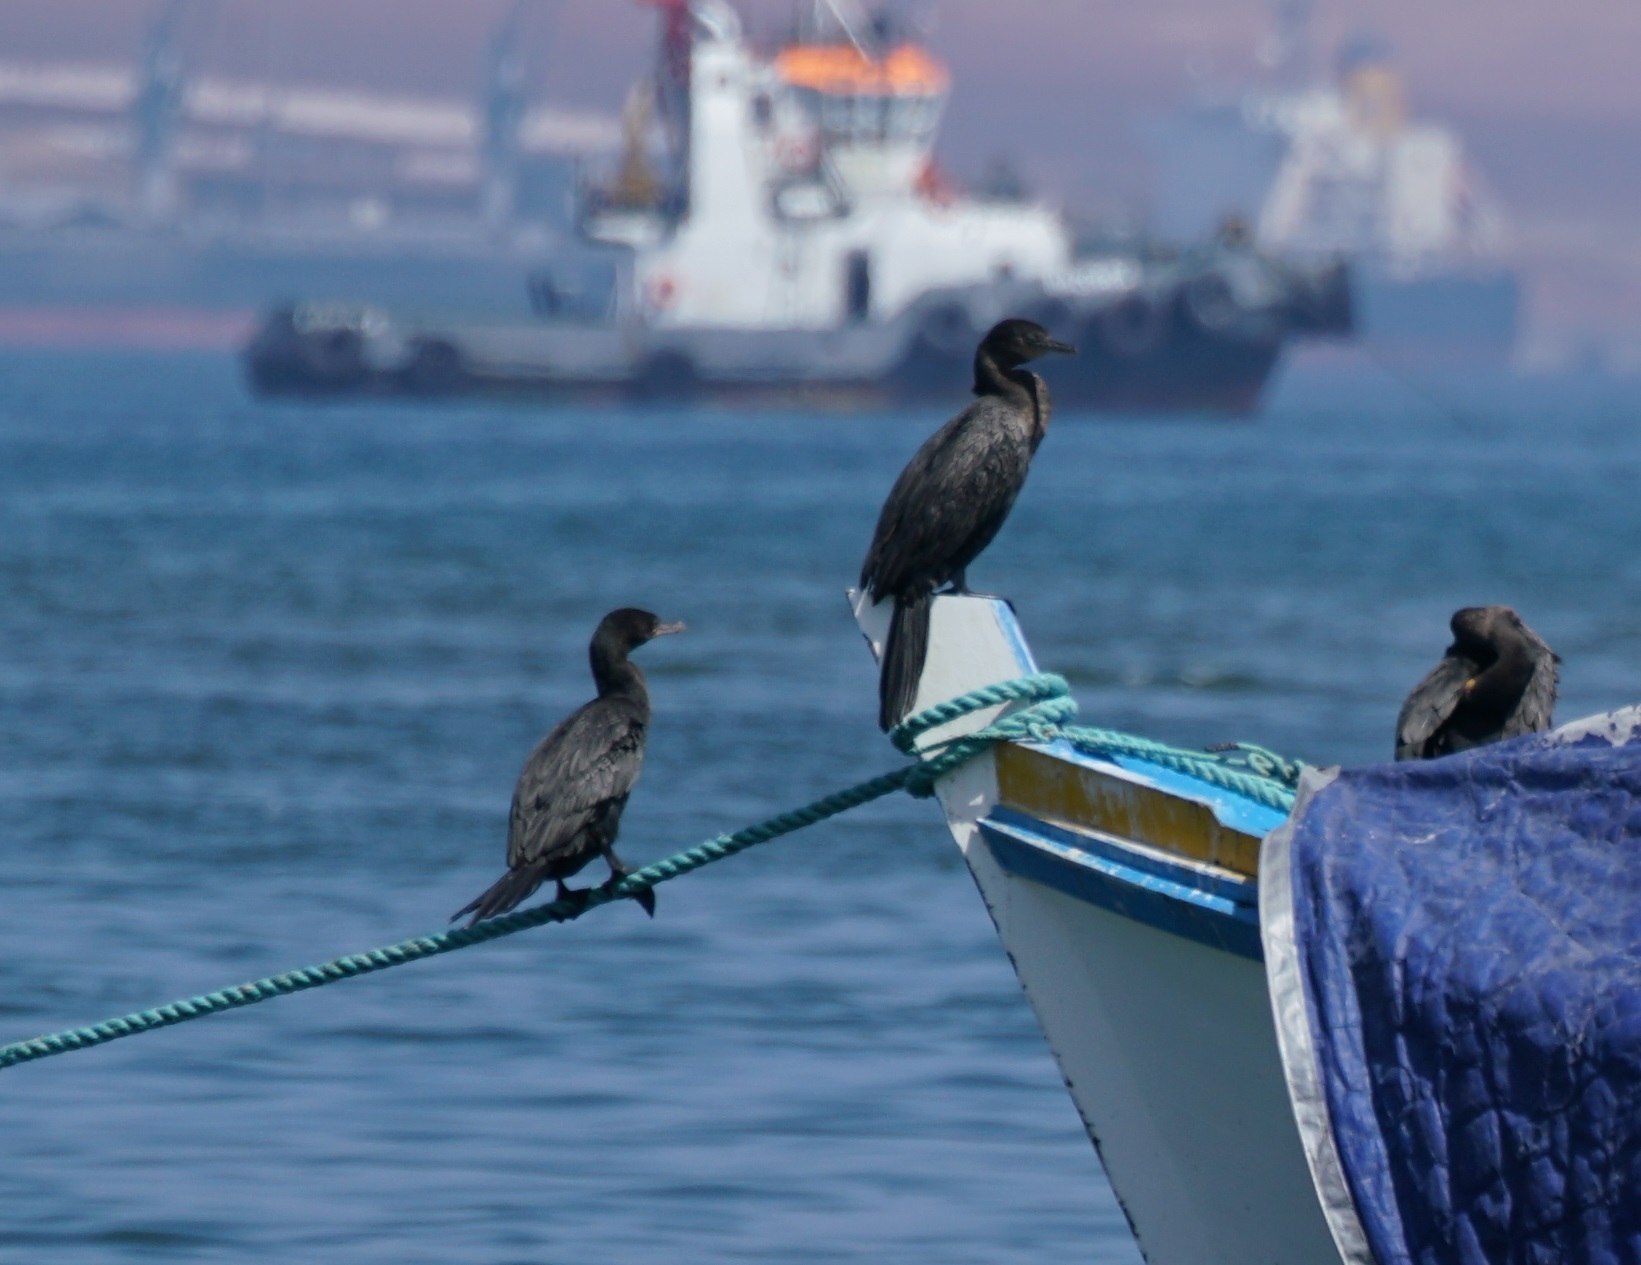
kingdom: Animalia
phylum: Chordata
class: Aves
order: Suliformes
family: Phalacrocoracidae
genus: Phalacrocorax
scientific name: Phalacrocorax brasilianus
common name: Neotropic cormorant
